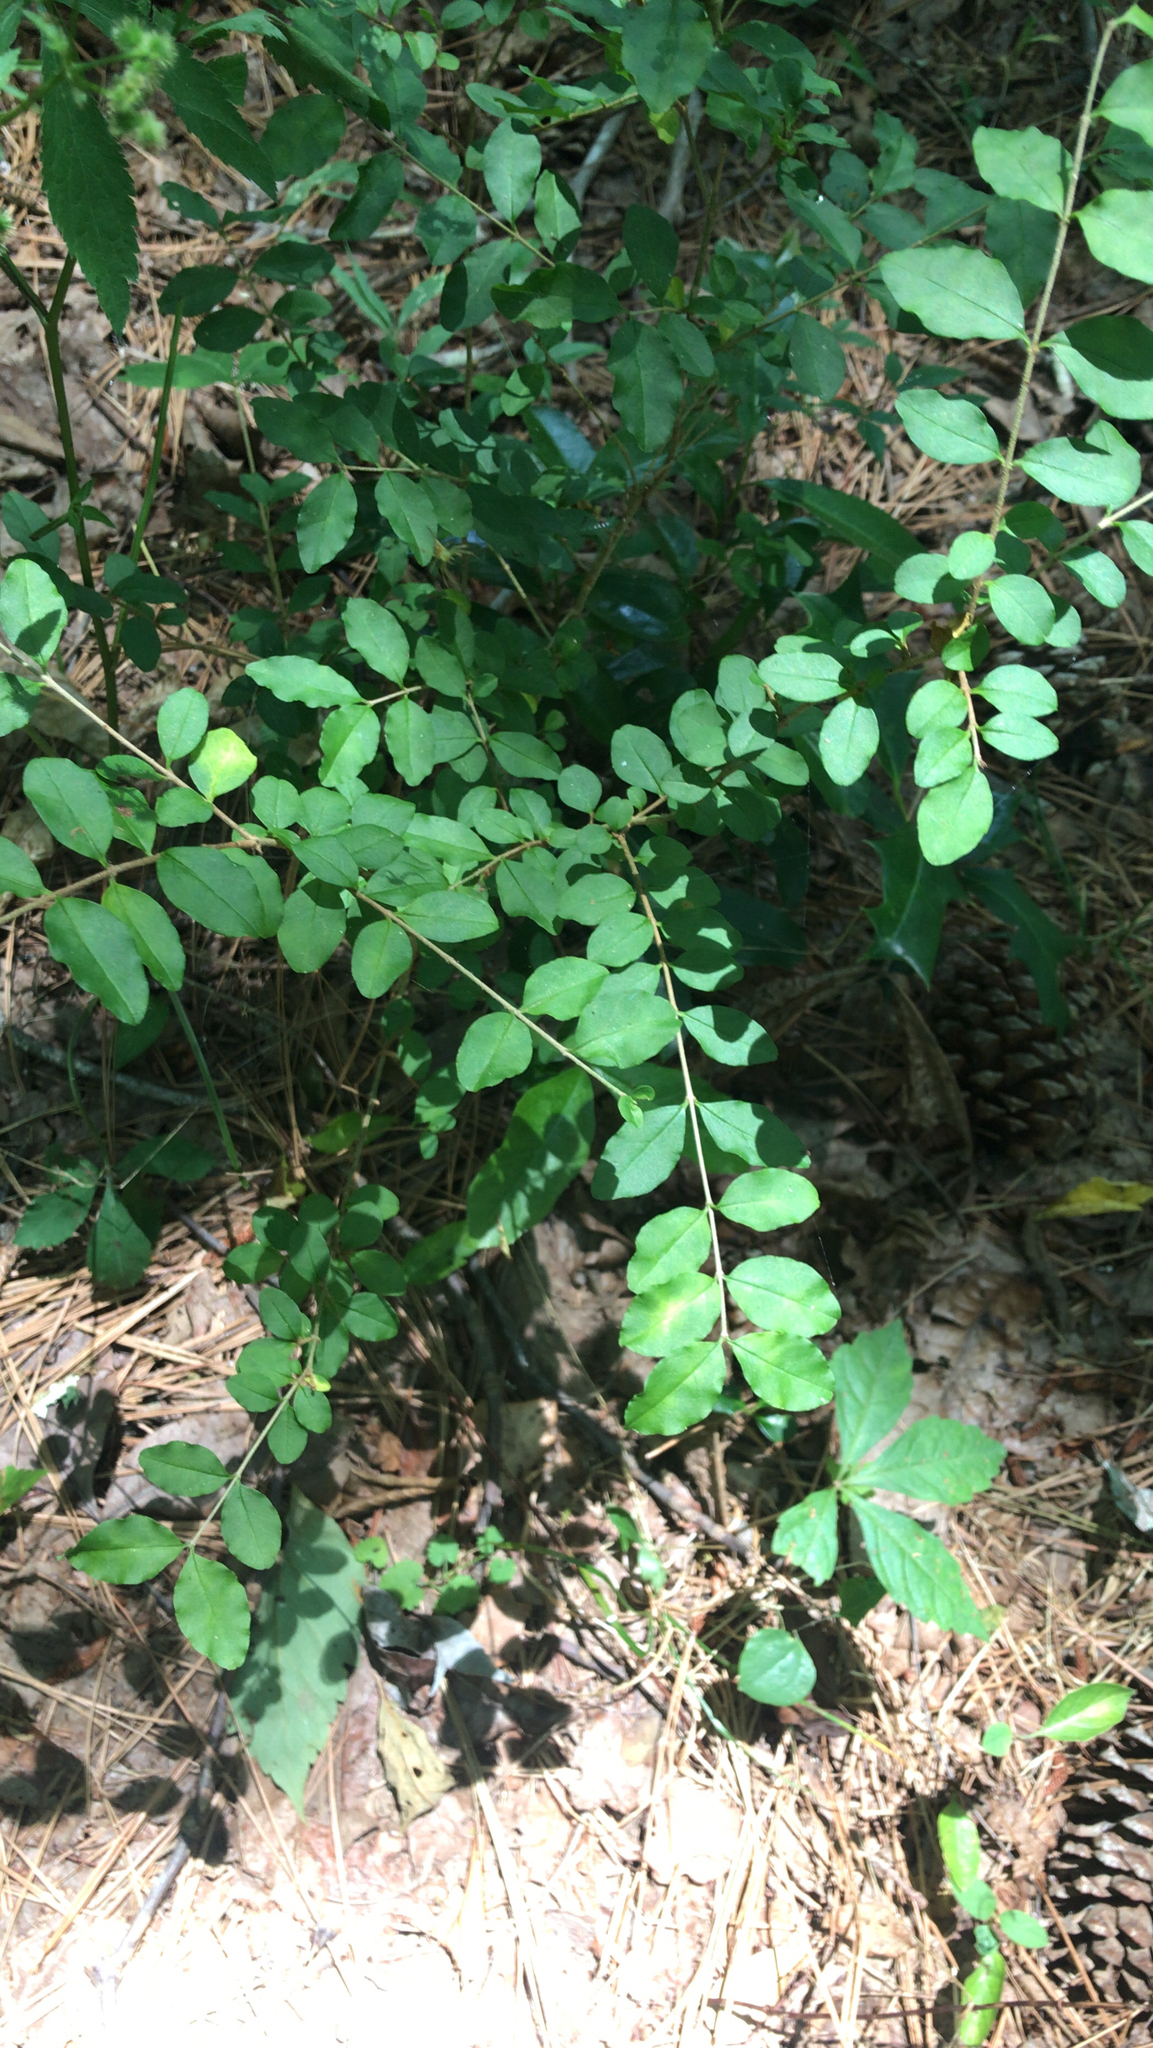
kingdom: Plantae
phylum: Tracheophyta
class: Magnoliopsida
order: Lamiales
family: Oleaceae
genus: Ligustrum
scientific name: Ligustrum sinense
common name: Chinese privet
